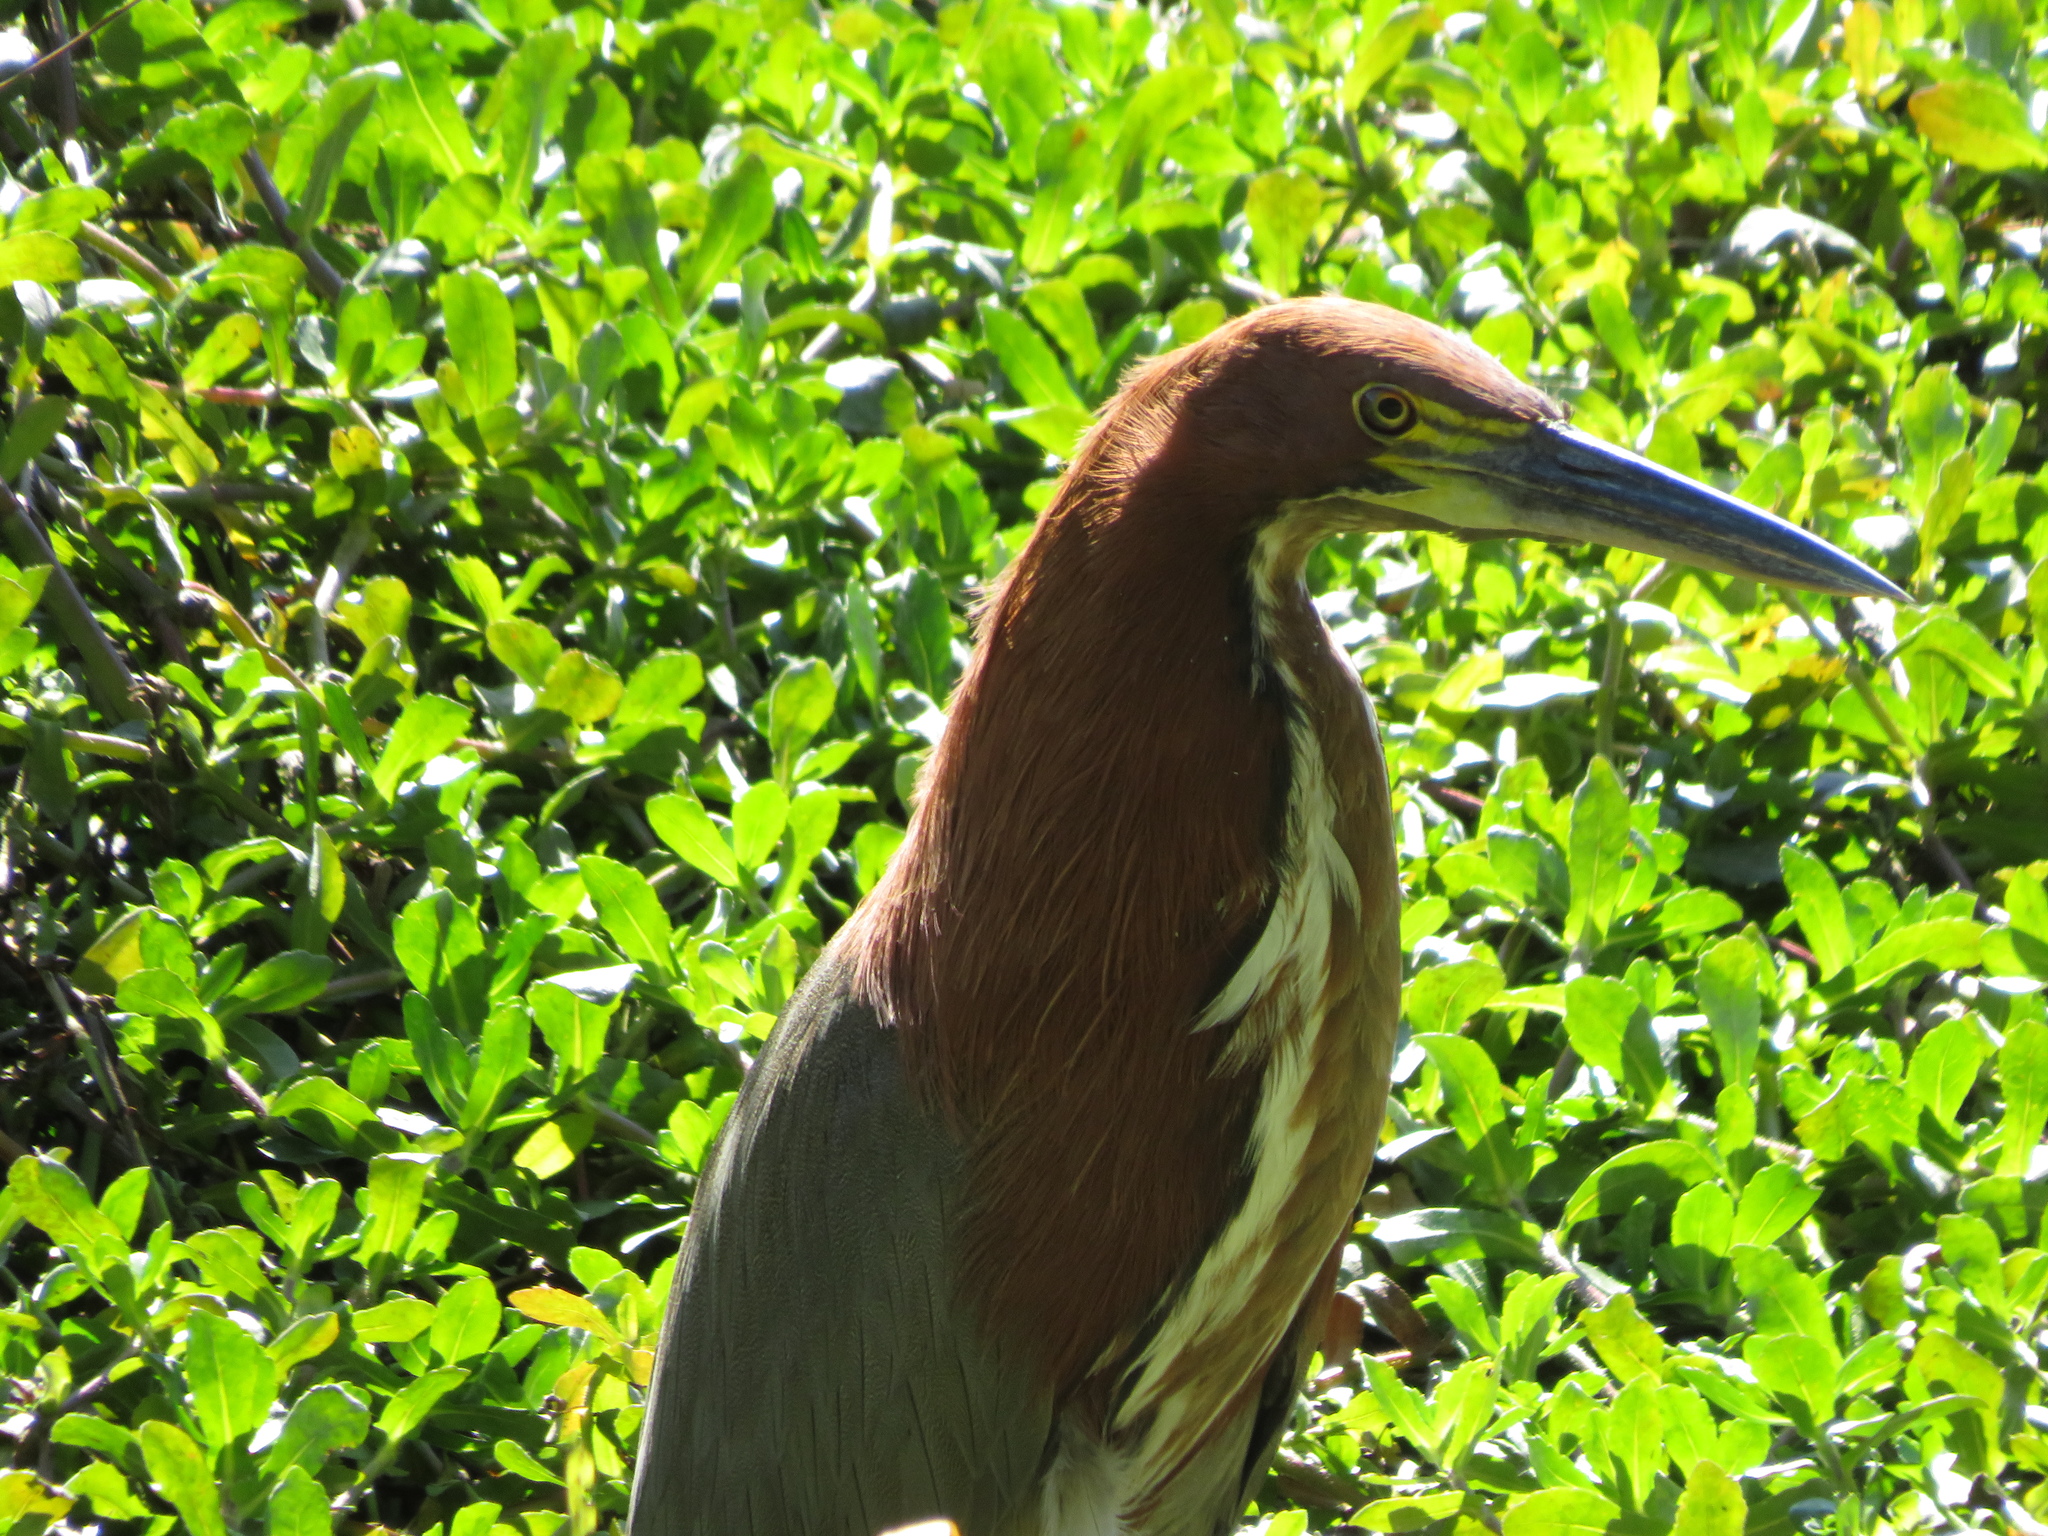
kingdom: Animalia
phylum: Chordata
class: Aves
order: Pelecaniformes
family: Ardeidae
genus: Tigrisoma
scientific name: Tigrisoma lineatum
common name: Rufescent tiger-heron
